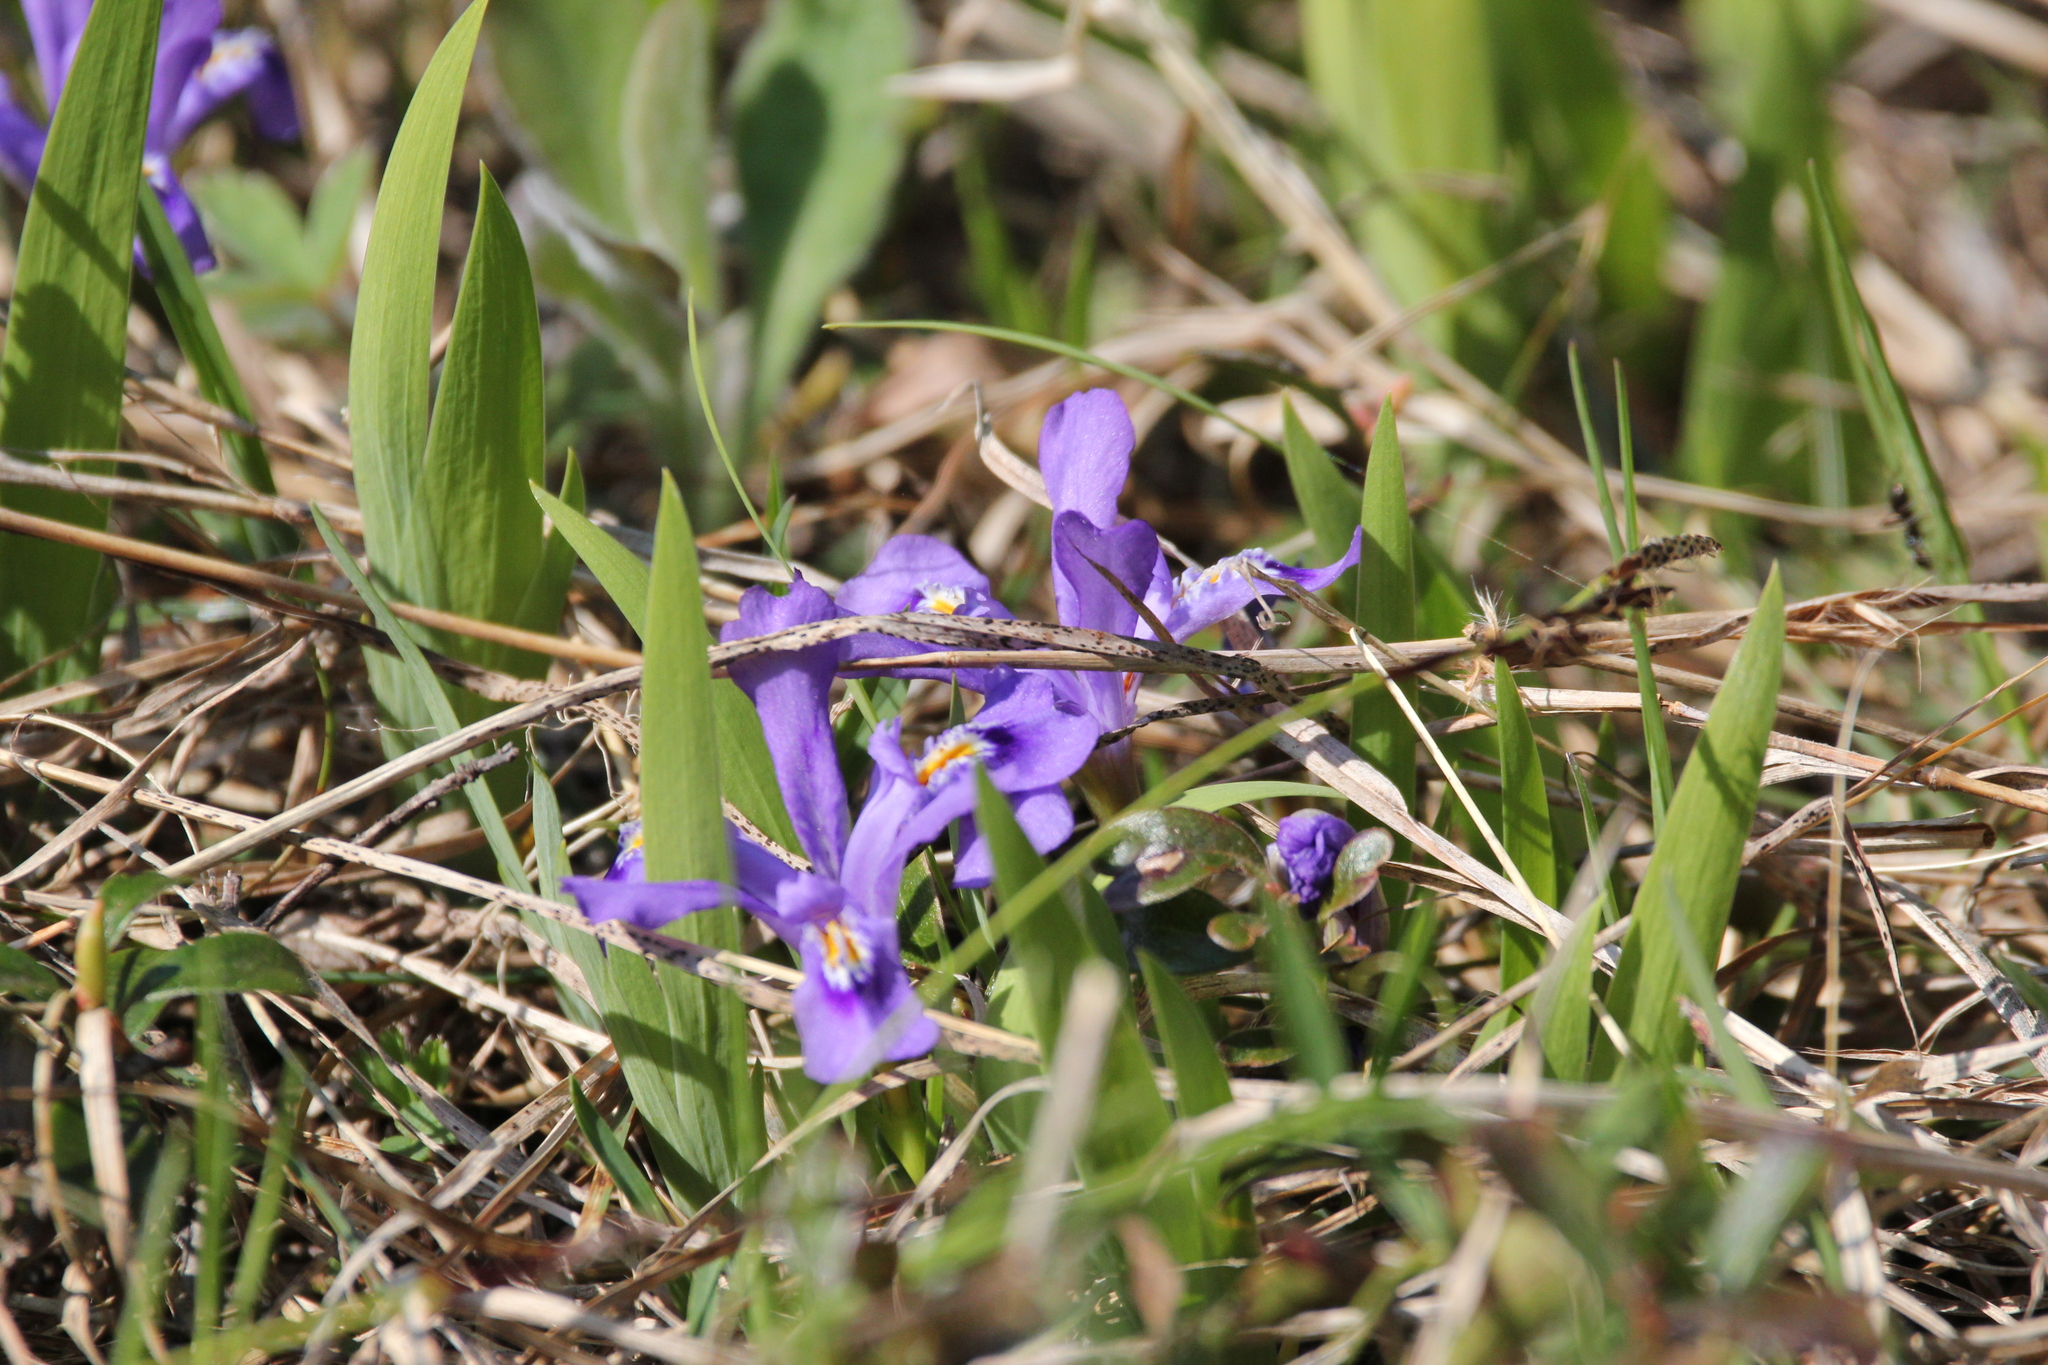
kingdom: Plantae
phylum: Tracheophyta
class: Liliopsida
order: Asparagales
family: Iridaceae
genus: Iris
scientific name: Iris lacustris
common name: Dwarf lake iris
